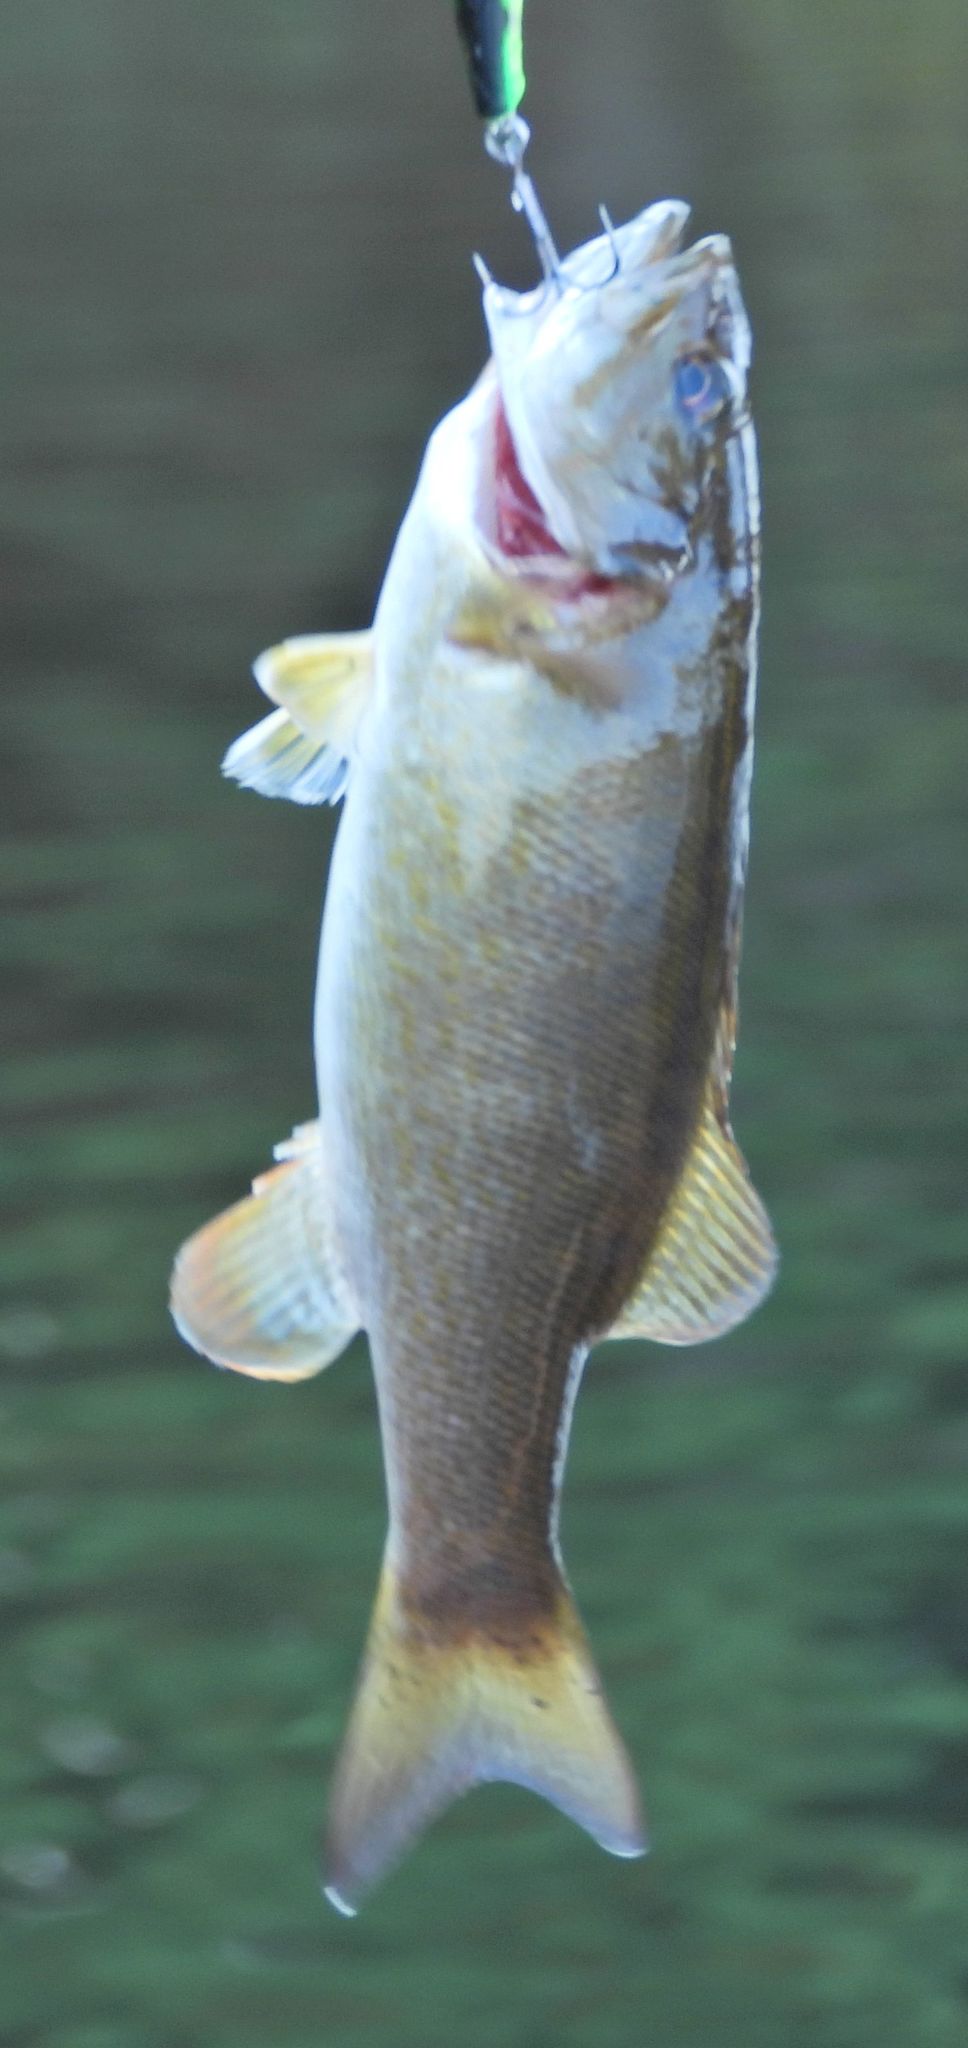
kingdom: Animalia
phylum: Chordata
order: Perciformes
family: Centrarchidae
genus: Micropterus
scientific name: Micropterus dolomieu
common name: Smallmouth bass
